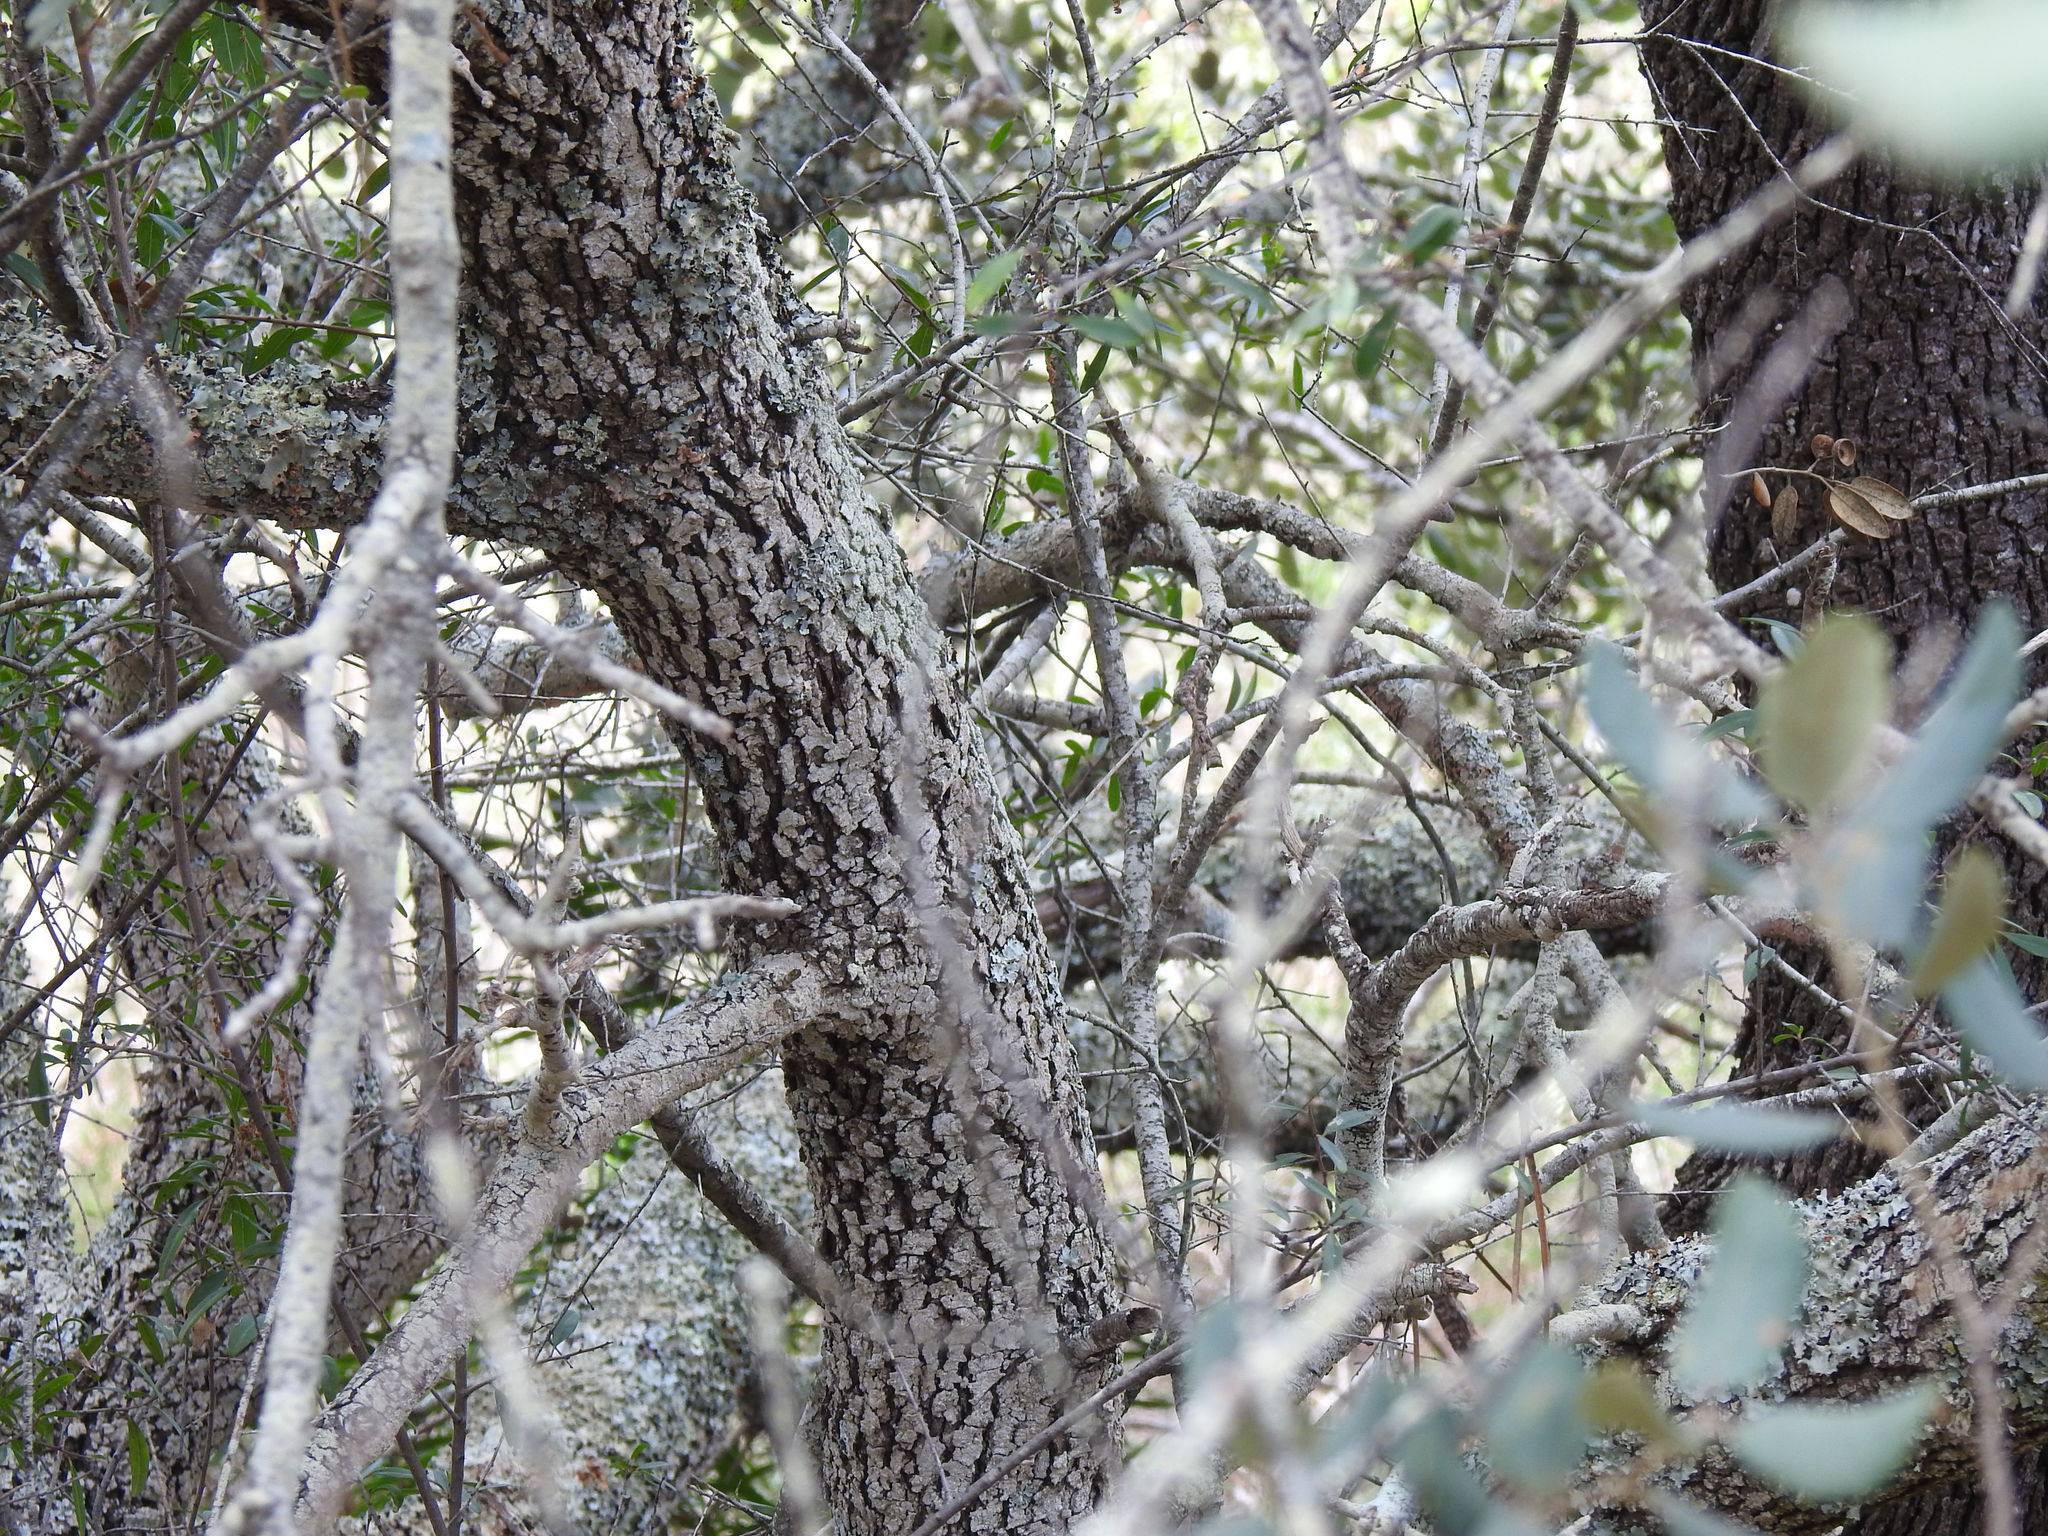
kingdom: Plantae
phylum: Tracheophyta
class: Magnoliopsida
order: Fagales
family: Fagaceae
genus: Quercus
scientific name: Quercus rotundifolia
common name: Holm oak
